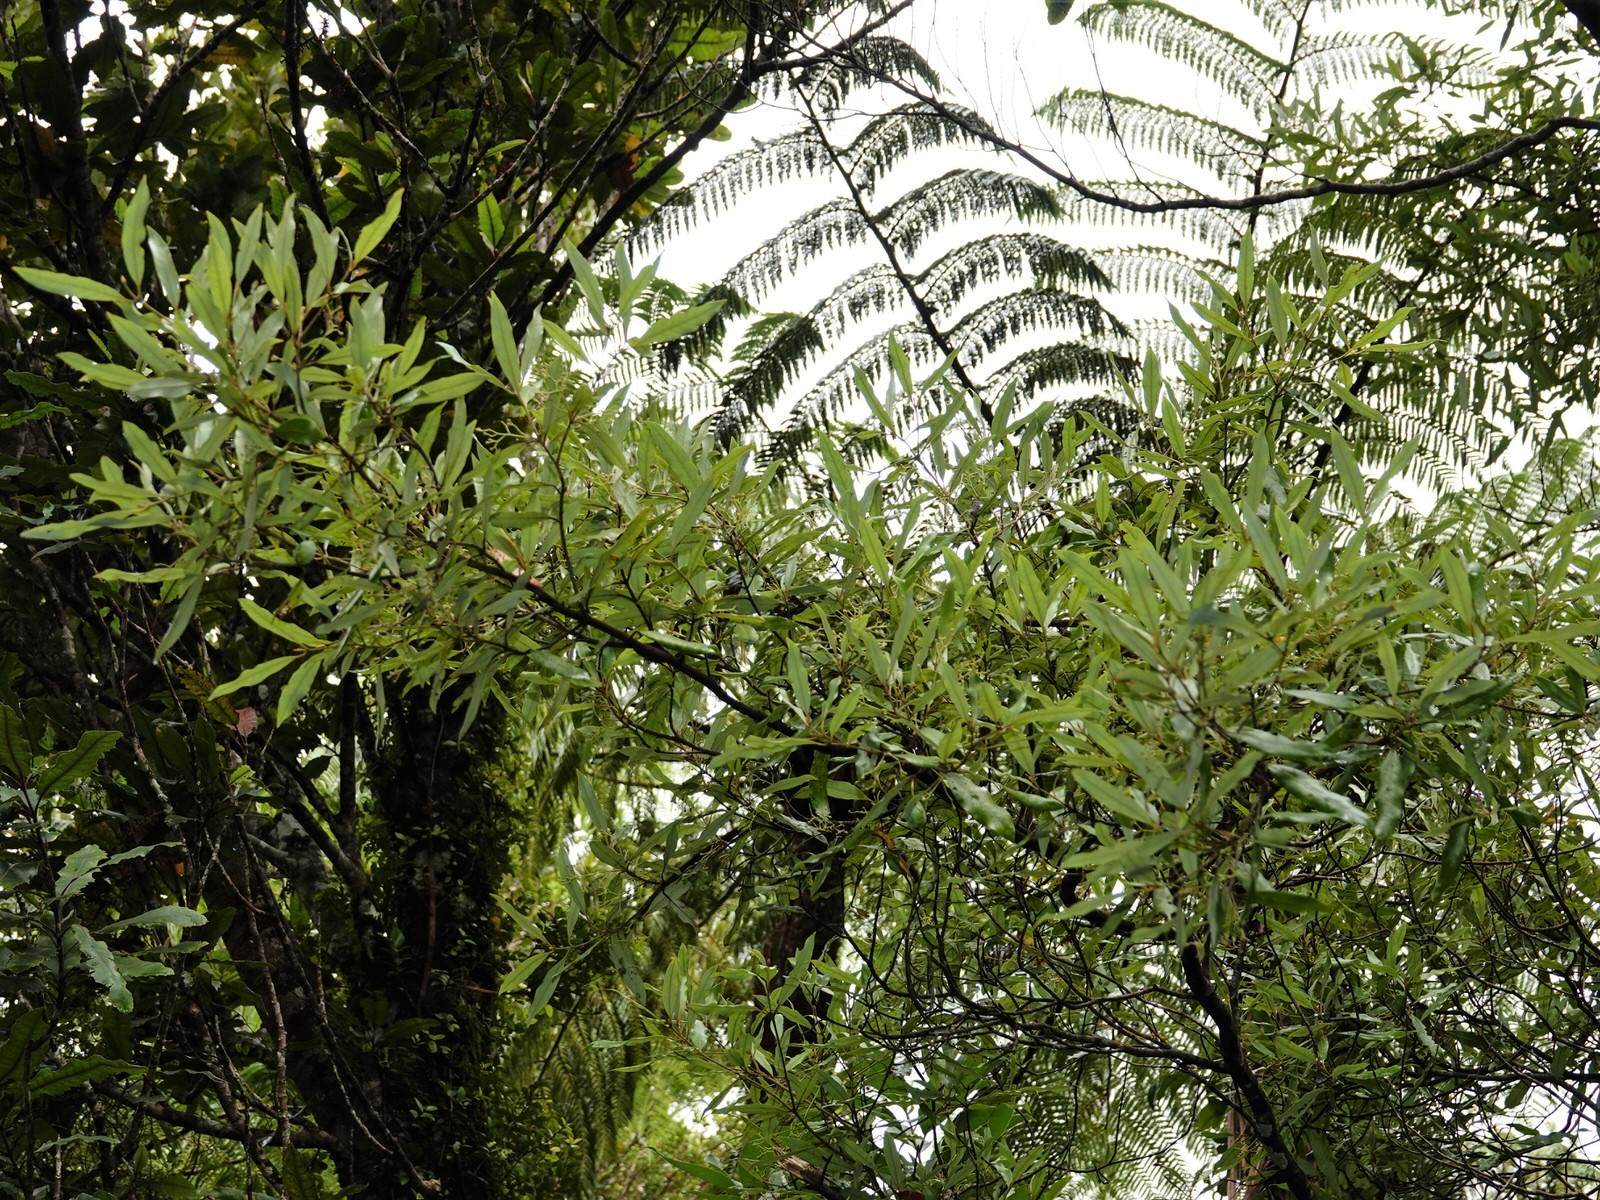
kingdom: Plantae
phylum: Tracheophyta
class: Magnoliopsida
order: Laurales
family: Lauraceae
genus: Beilschmiedia
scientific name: Beilschmiedia tawa
